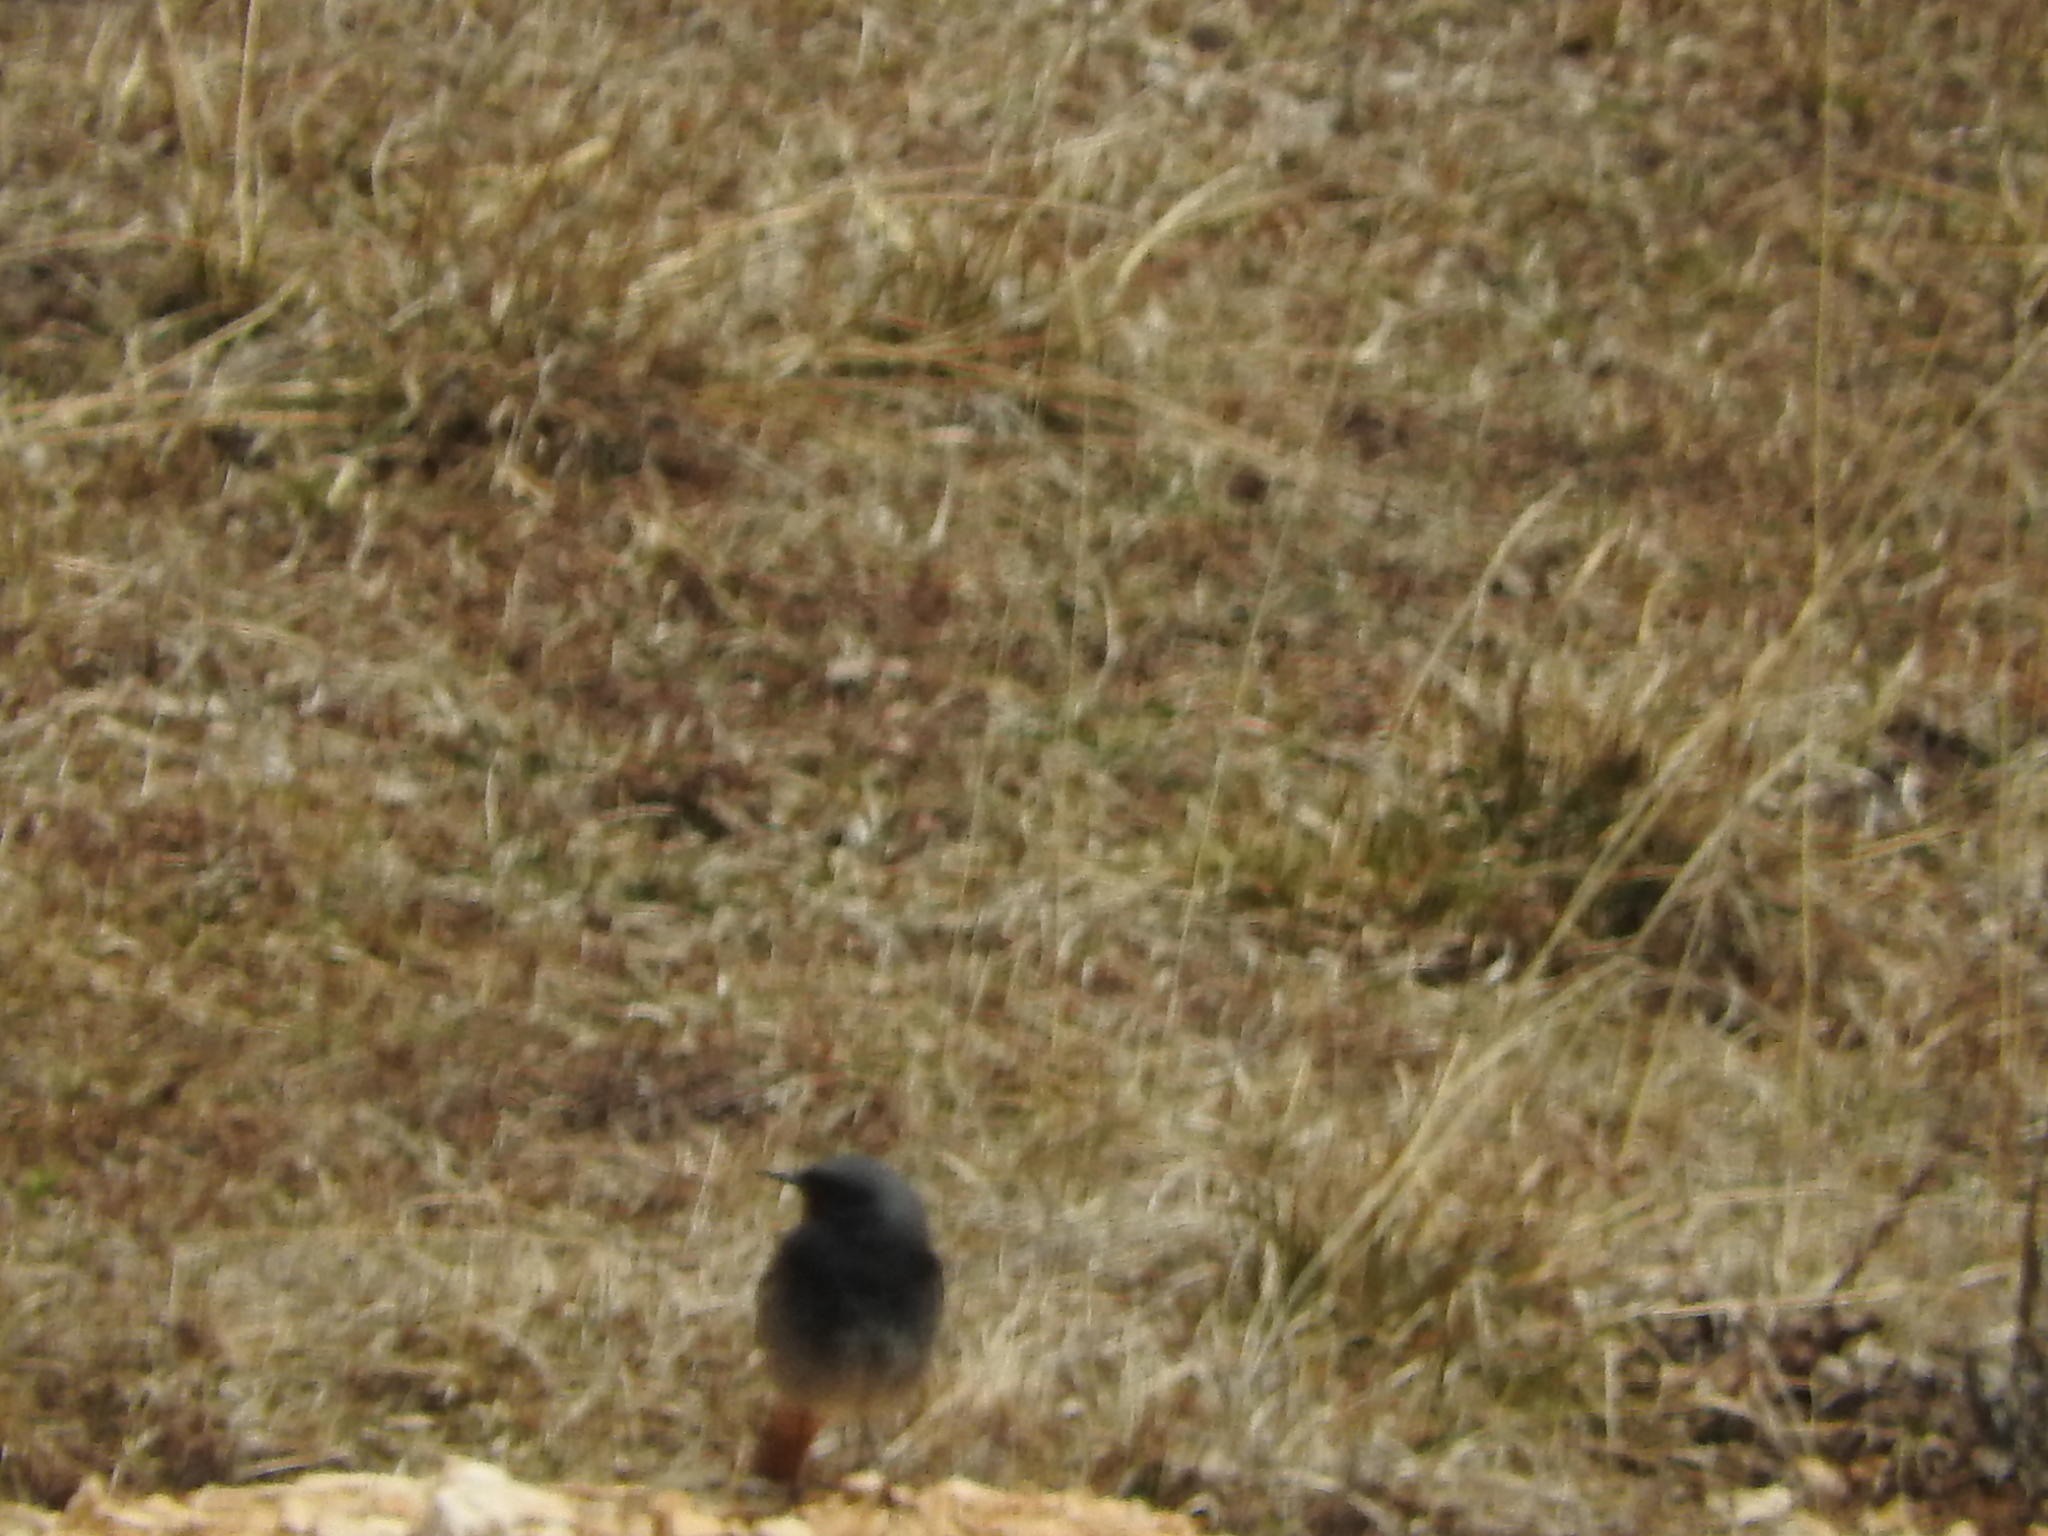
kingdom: Animalia
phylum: Chordata
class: Aves
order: Passeriformes
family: Muscicapidae
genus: Phoenicurus
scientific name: Phoenicurus ochruros
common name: Black redstart
